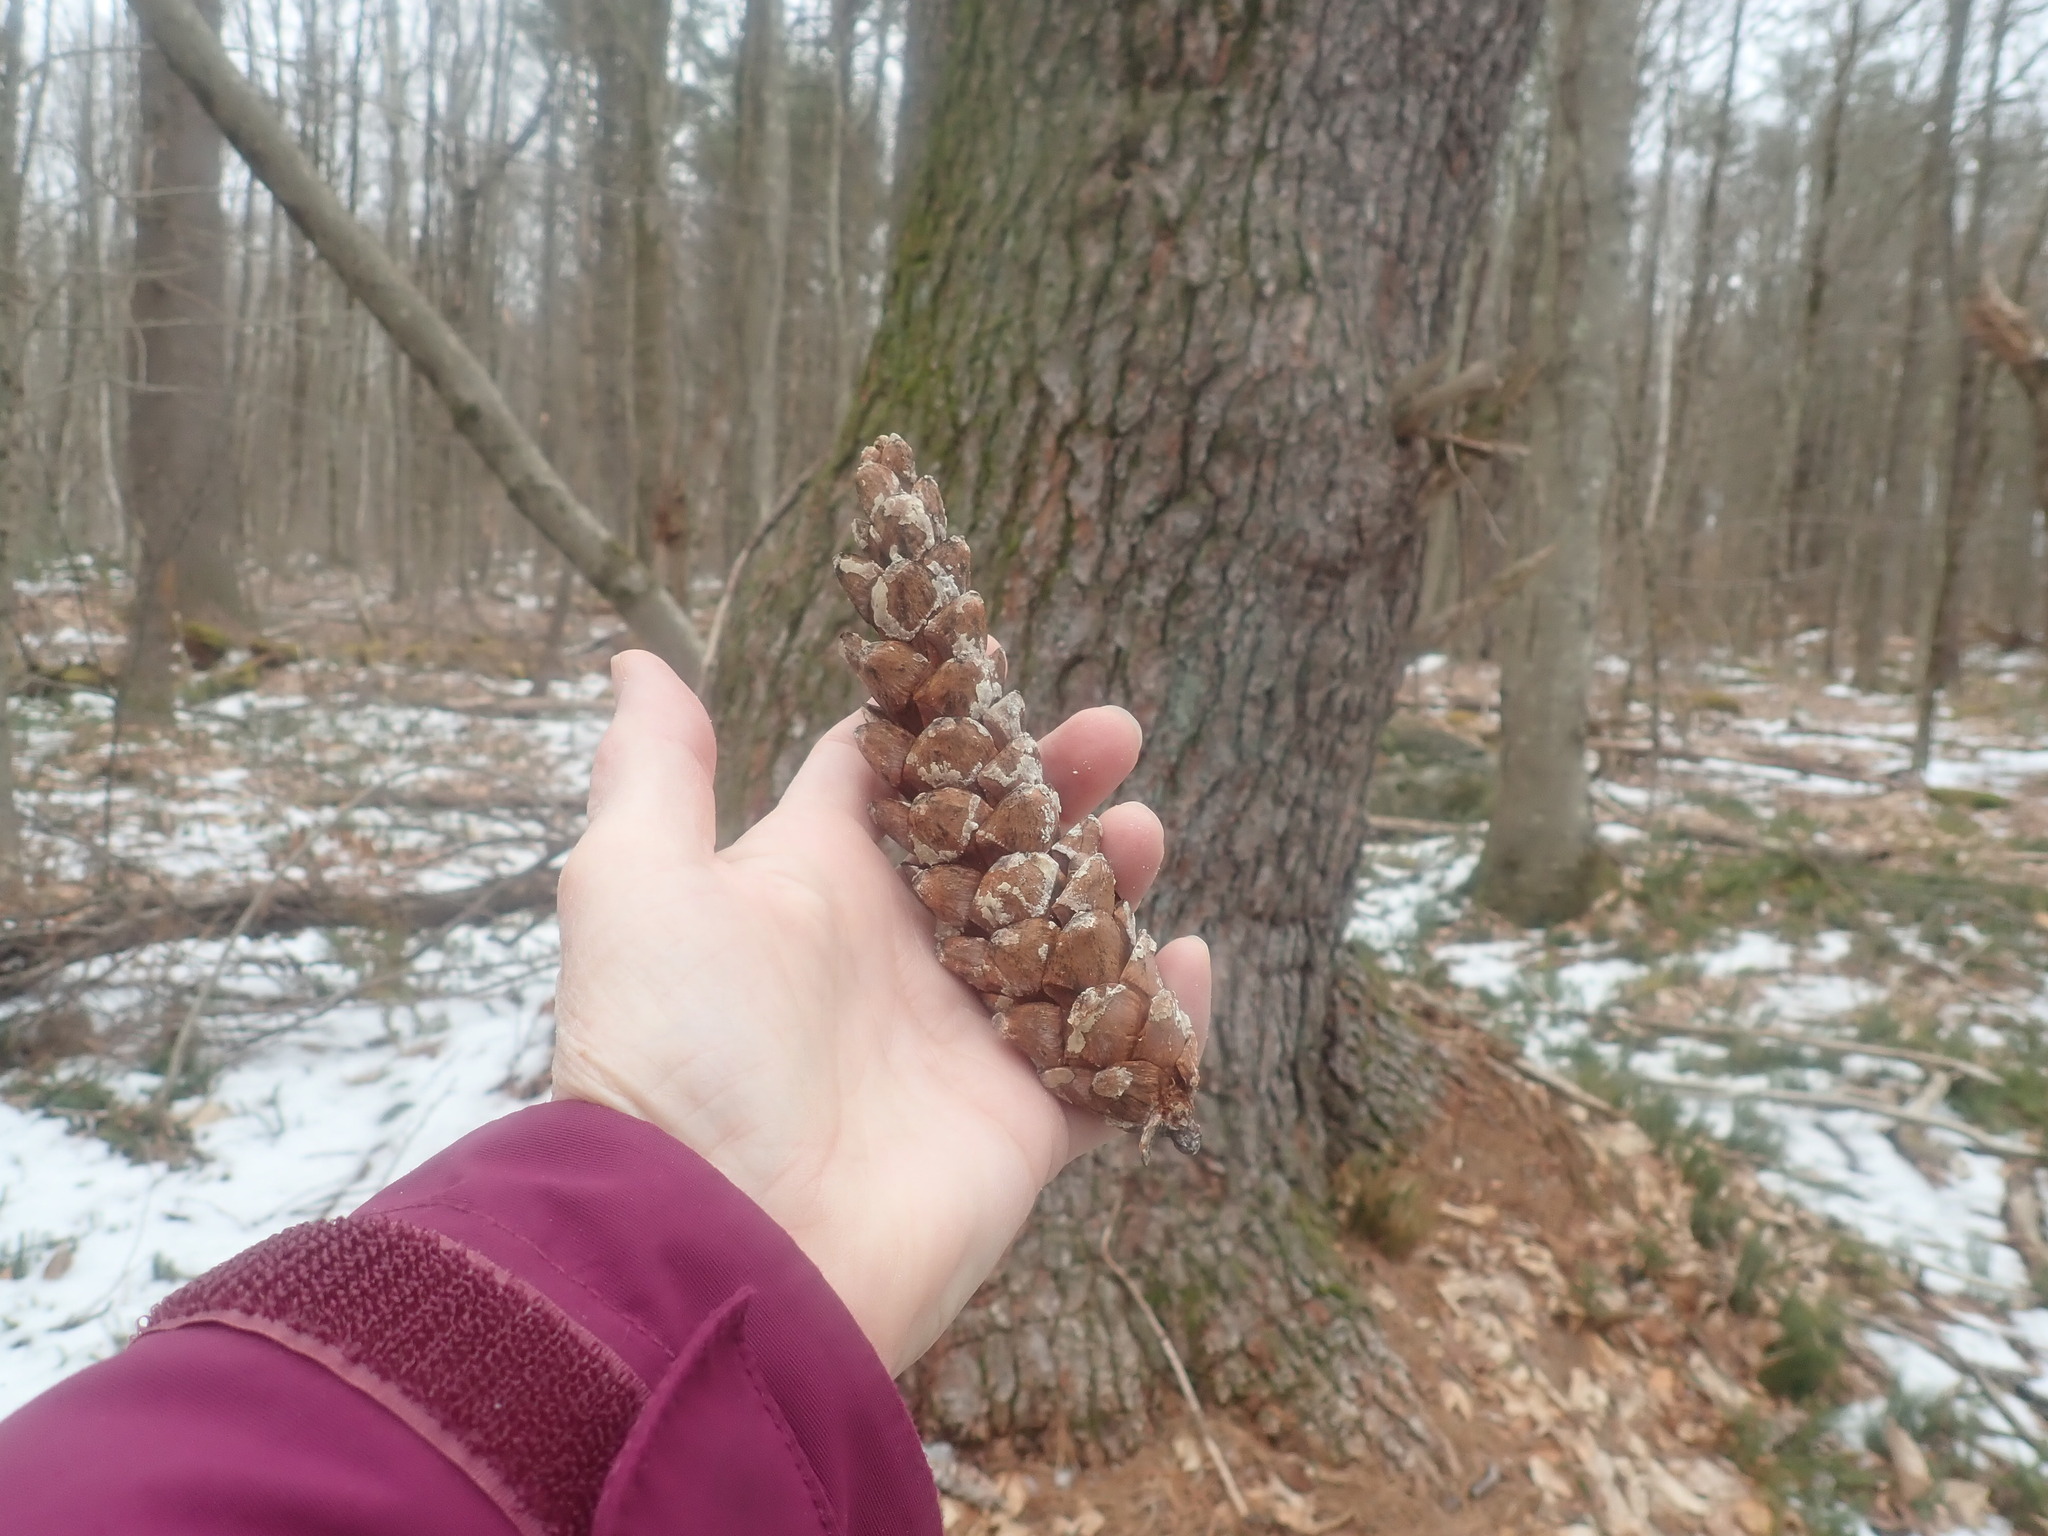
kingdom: Plantae
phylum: Tracheophyta
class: Pinopsida
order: Pinales
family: Pinaceae
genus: Pinus
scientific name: Pinus strobus
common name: Weymouth pine
